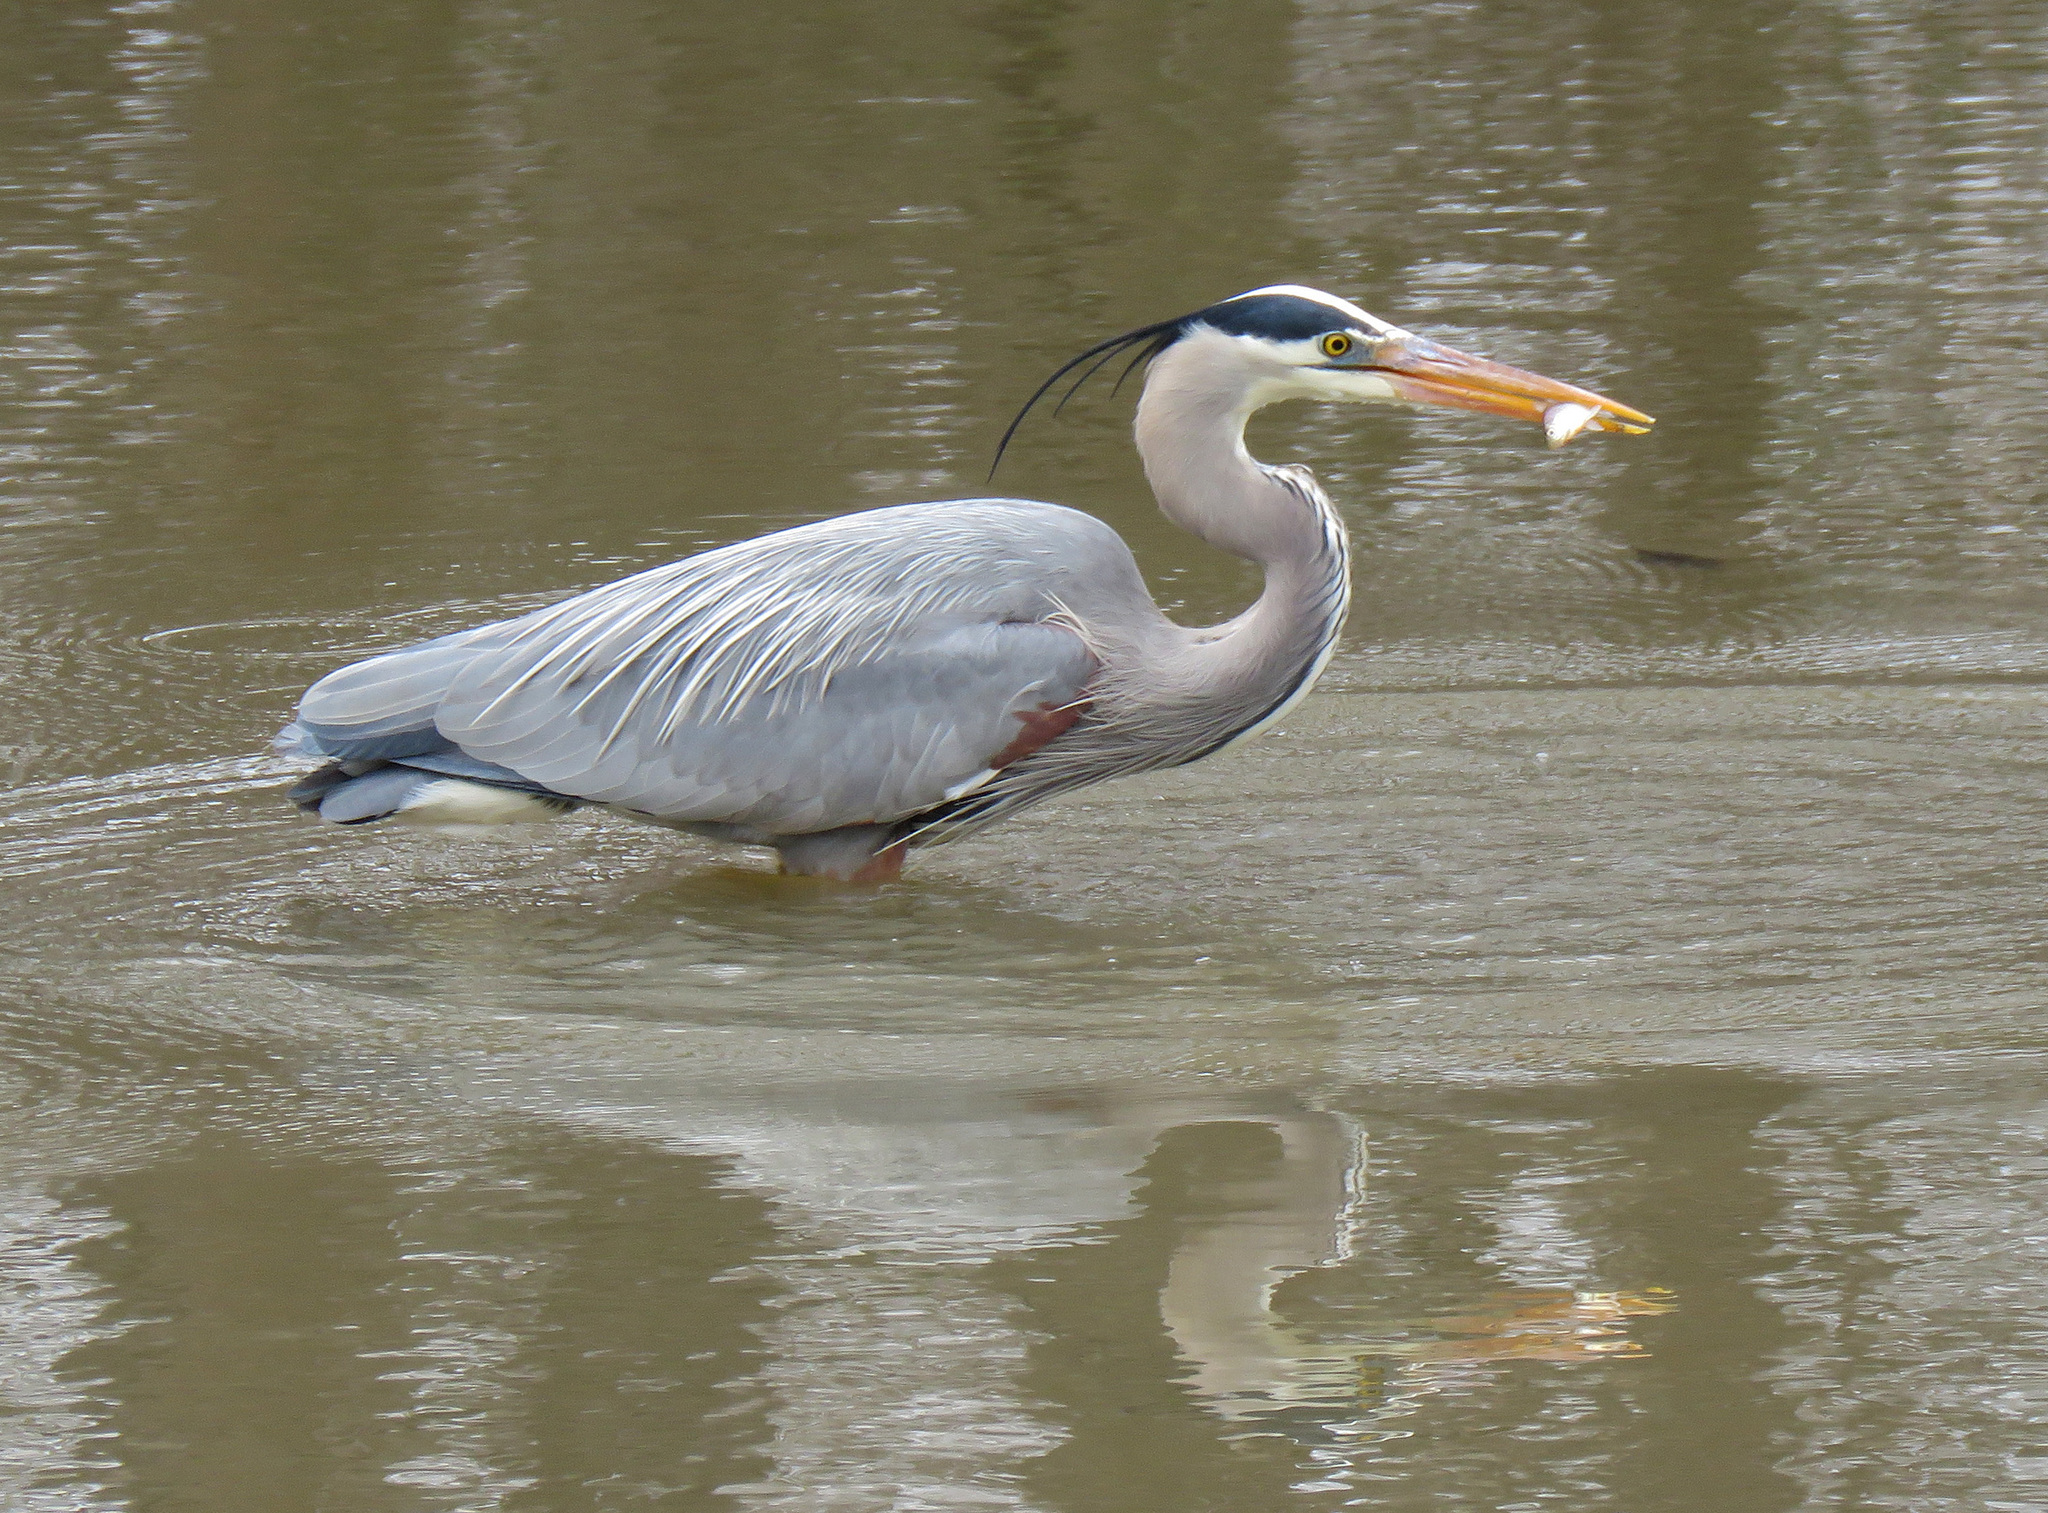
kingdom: Animalia
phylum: Chordata
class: Aves
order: Pelecaniformes
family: Ardeidae
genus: Ardea
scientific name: Ardea herodias
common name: Great blue heron
